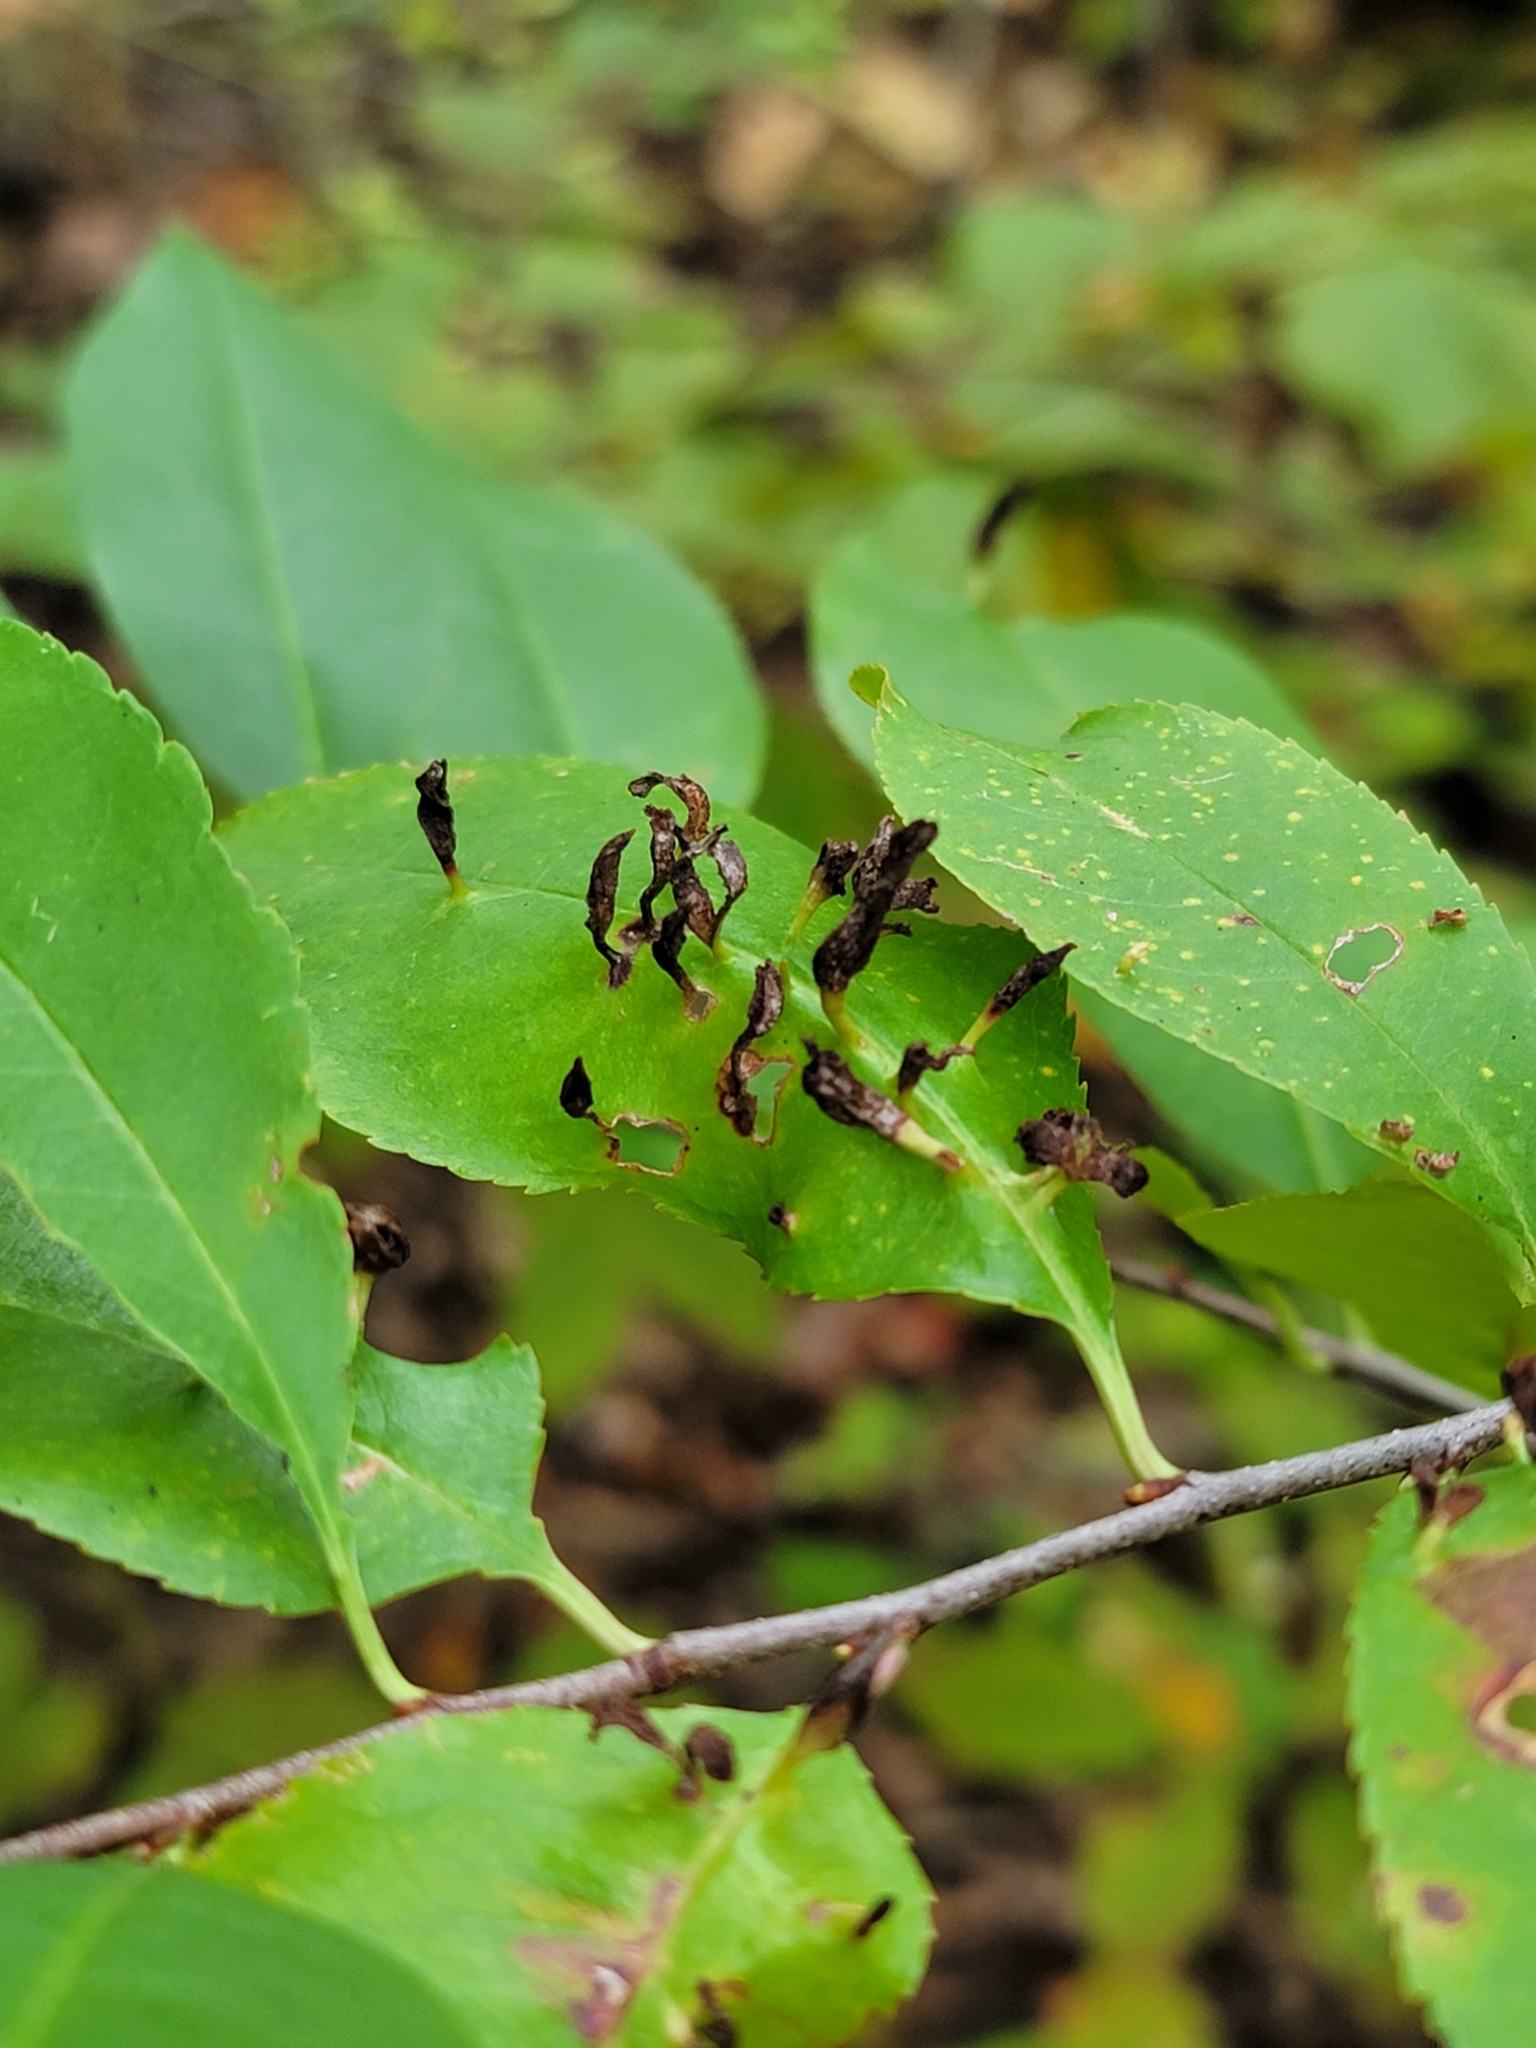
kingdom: Animalia
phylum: Arthropoda
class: Arachnida
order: Trombidiformes
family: Eriophyidae
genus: Eriophyes
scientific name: Eriophyes
